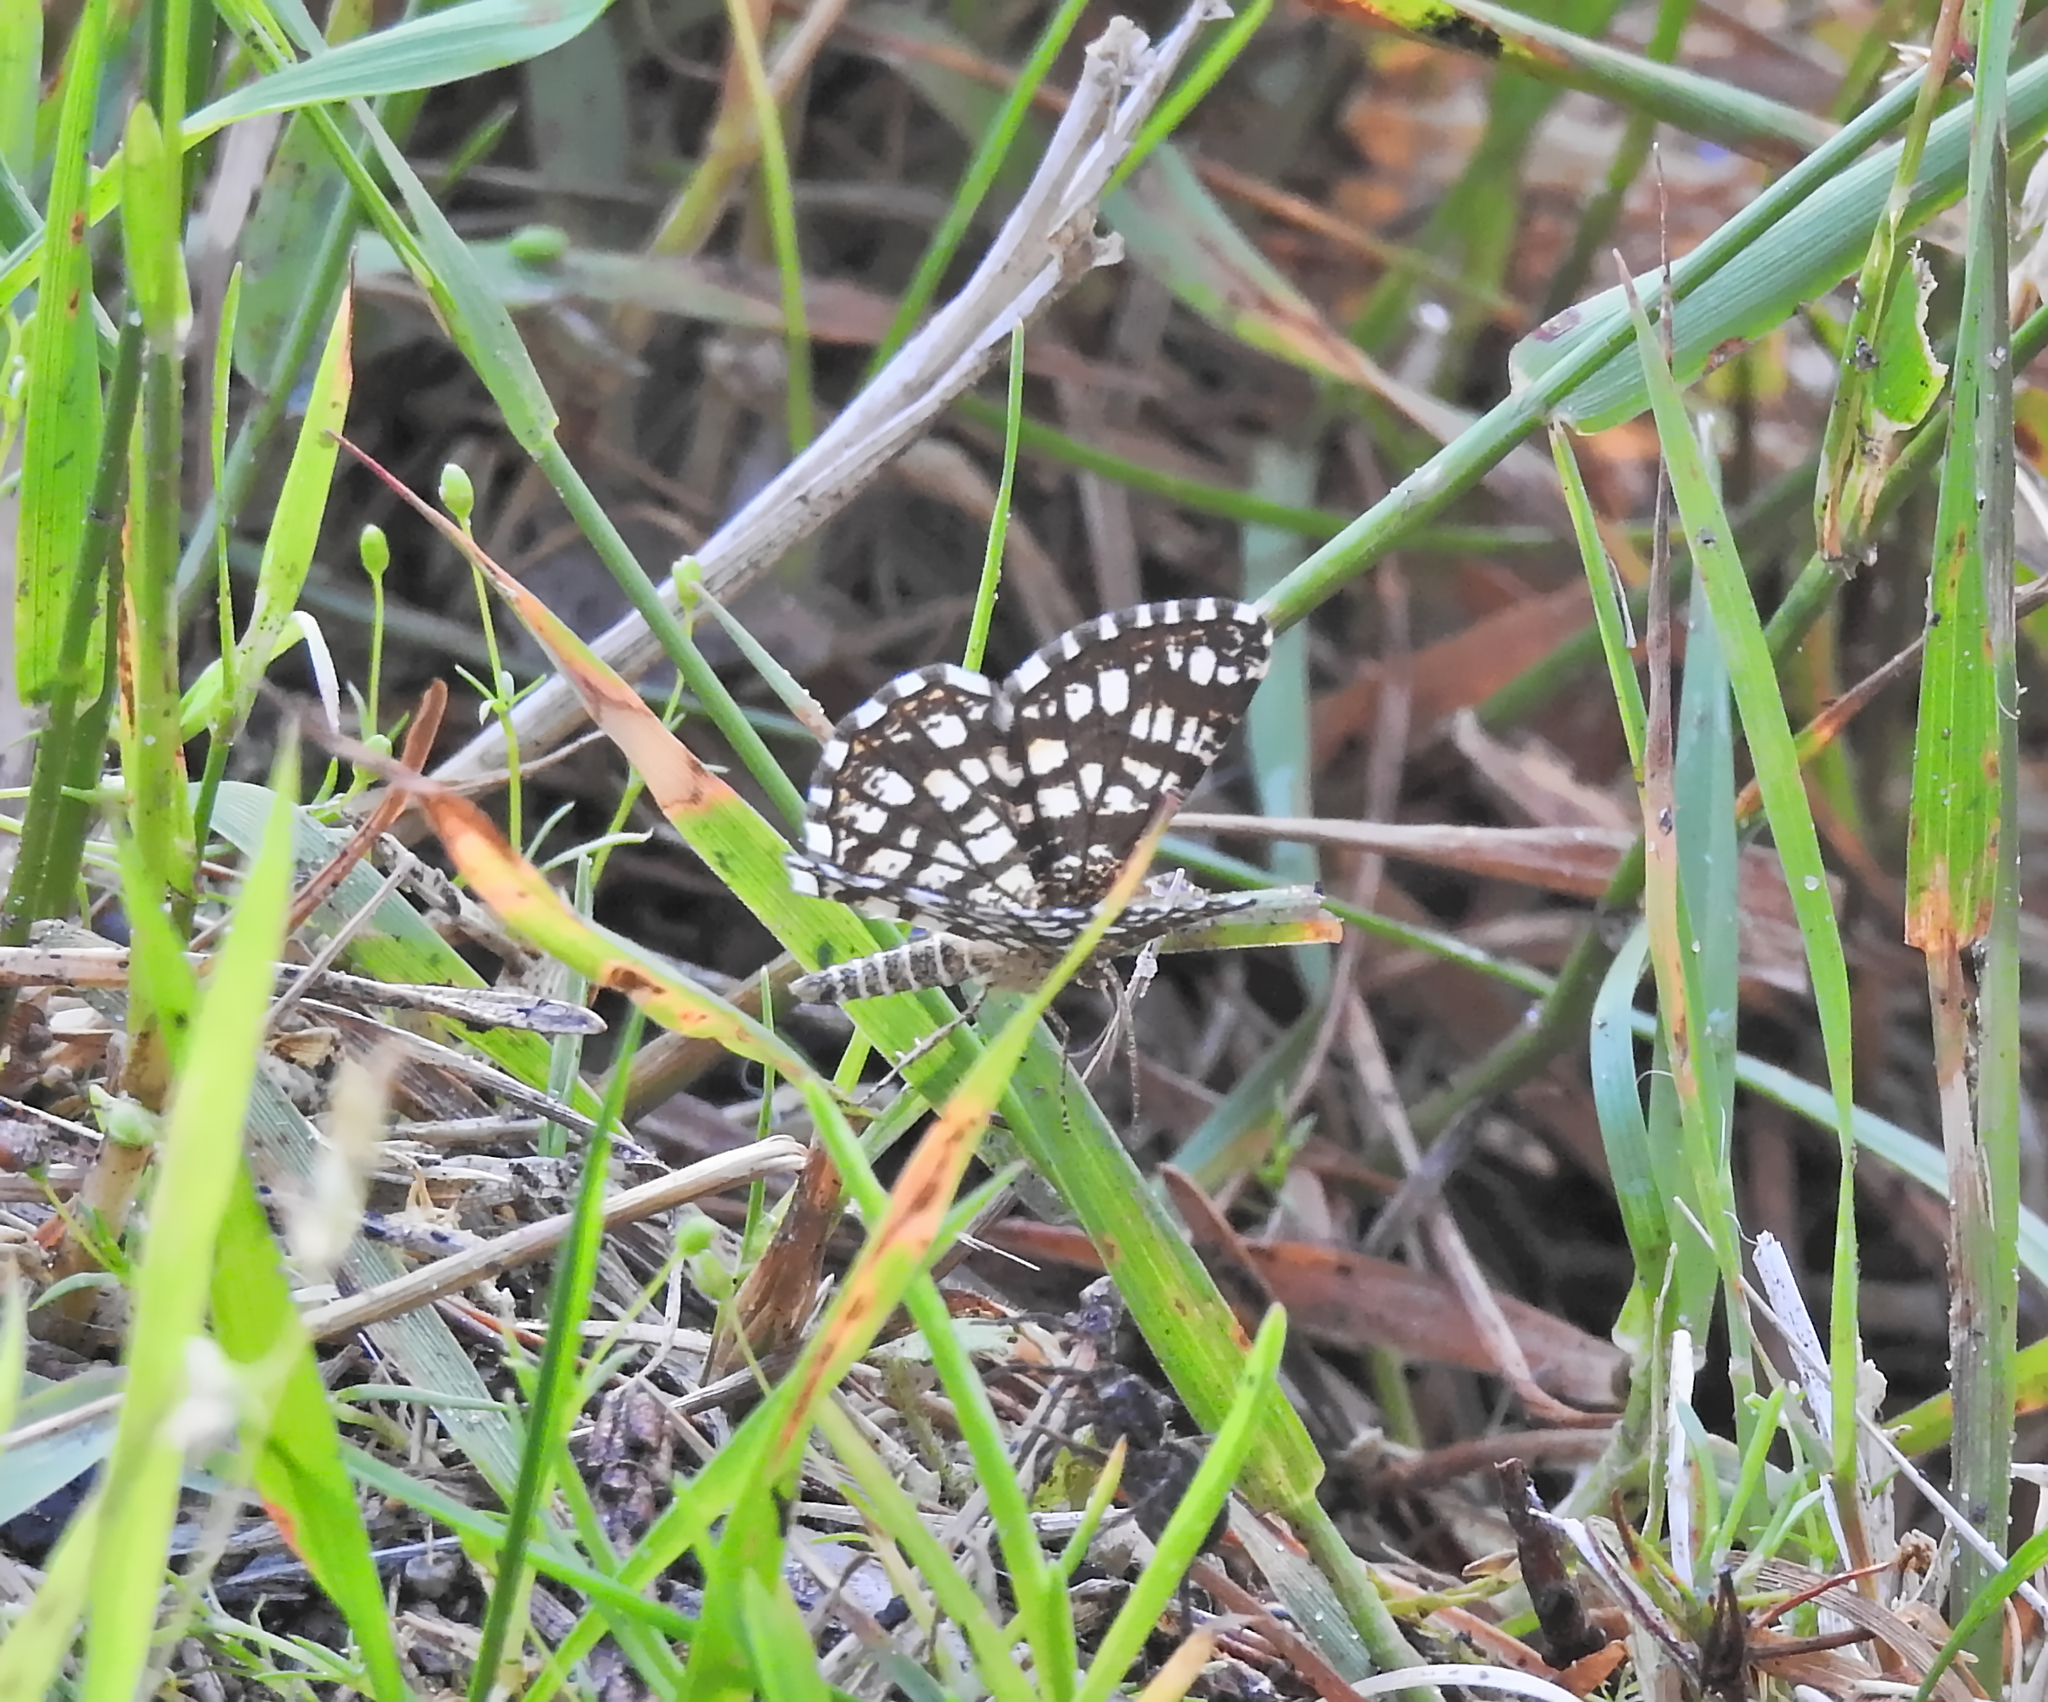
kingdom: Animalia
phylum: Arthropoda
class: Insecta
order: Lepidoptera
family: Geometridae
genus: Chiasmia
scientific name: Chiasmia clathrata
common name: Latticed heath
